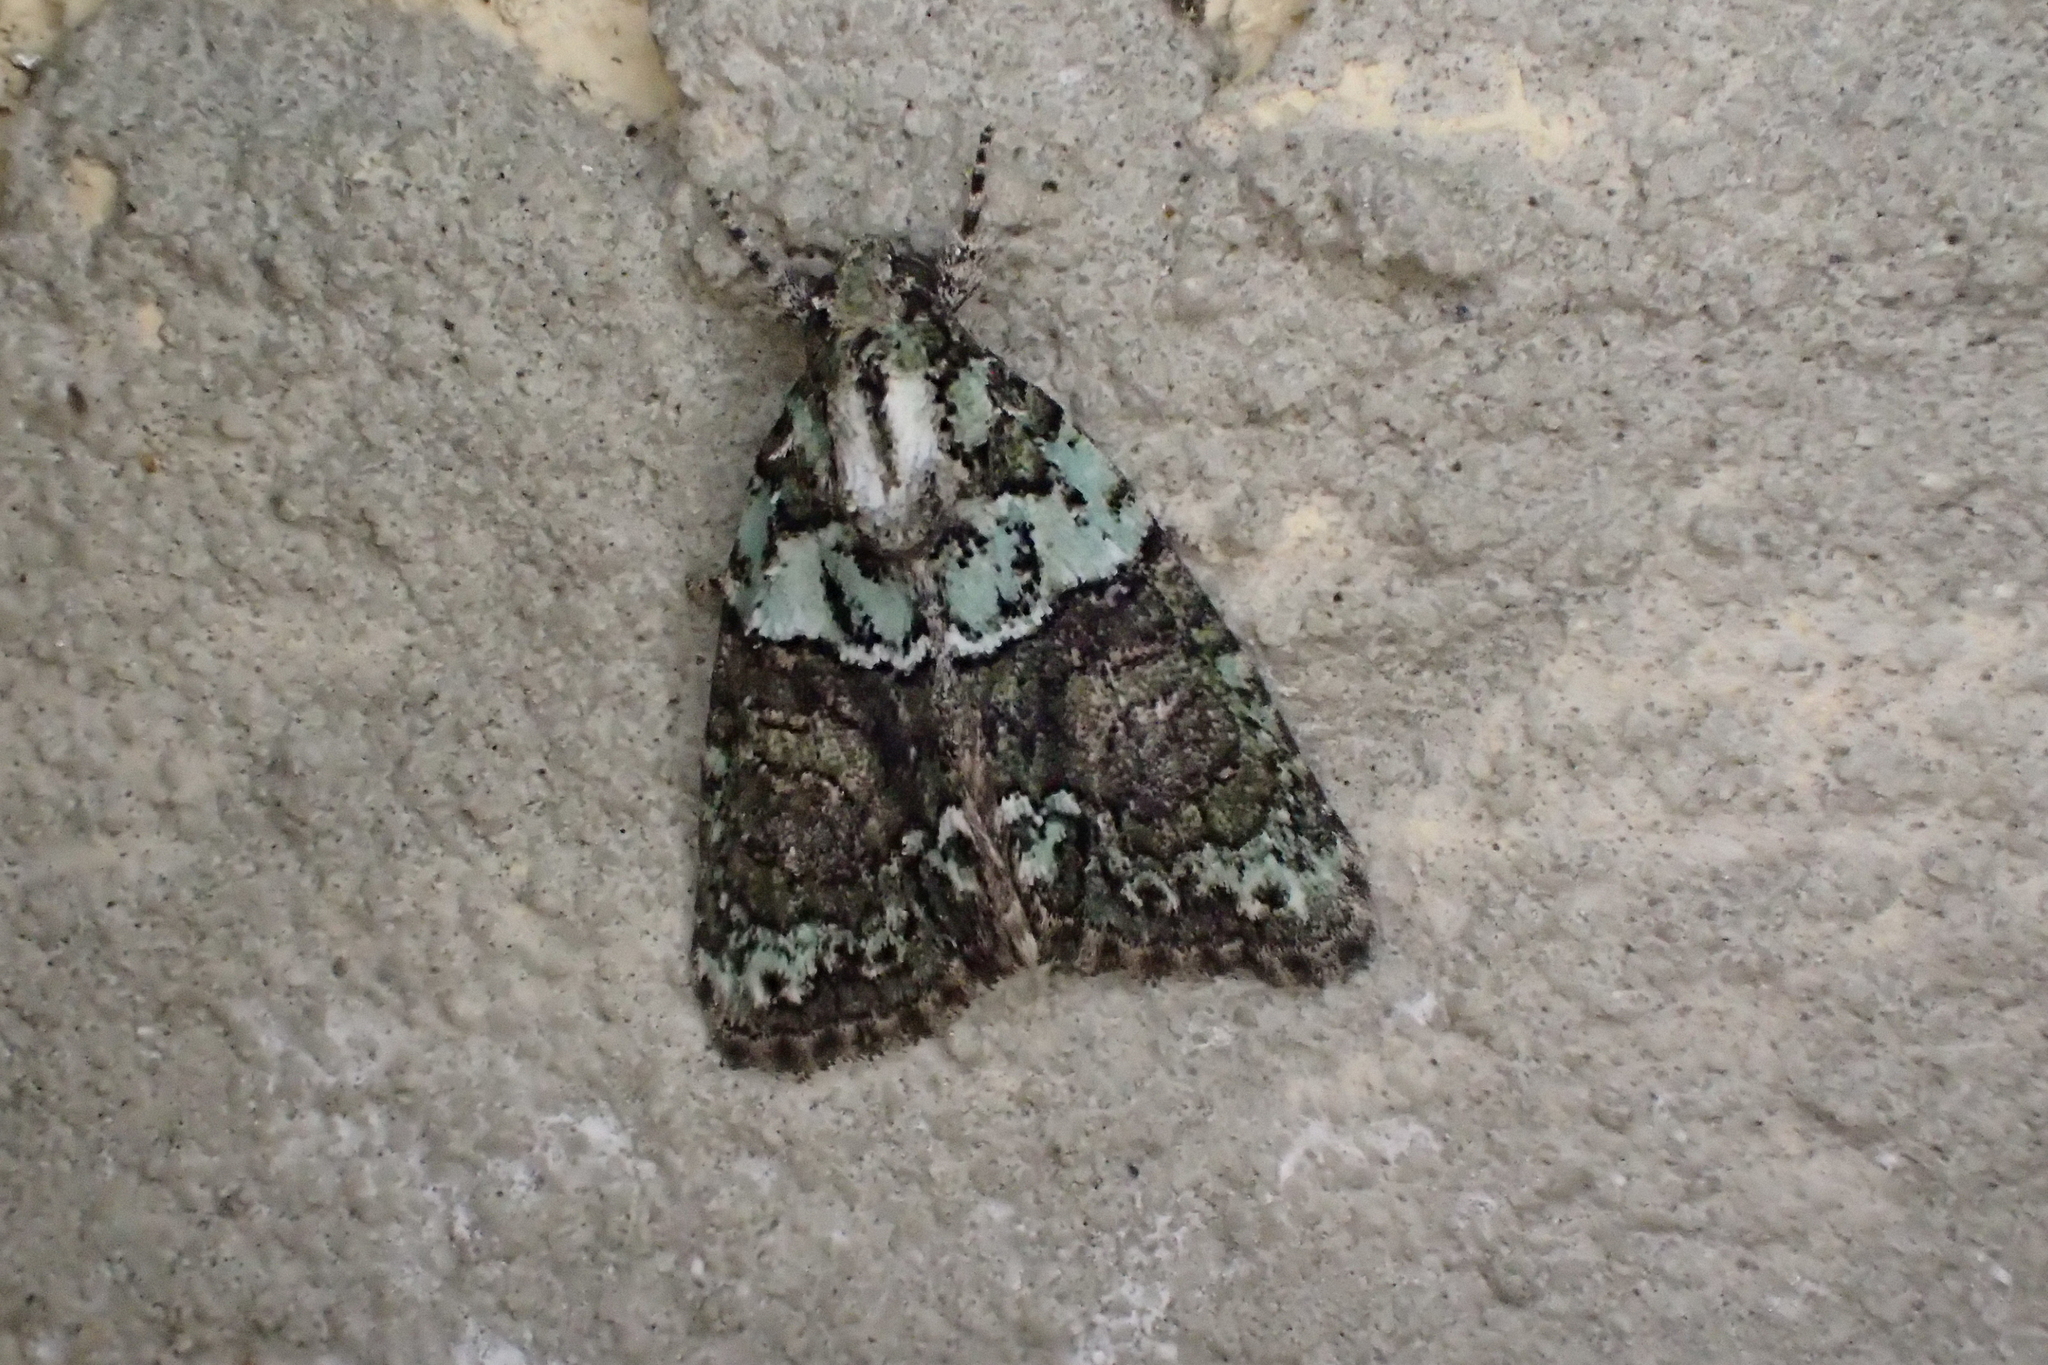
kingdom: Animalia
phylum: Arthropoda
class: Insecta
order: Lepidoptera
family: Noctuidae
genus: Cryphia
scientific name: Cryphia algae
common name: Tree-lichen beauty
